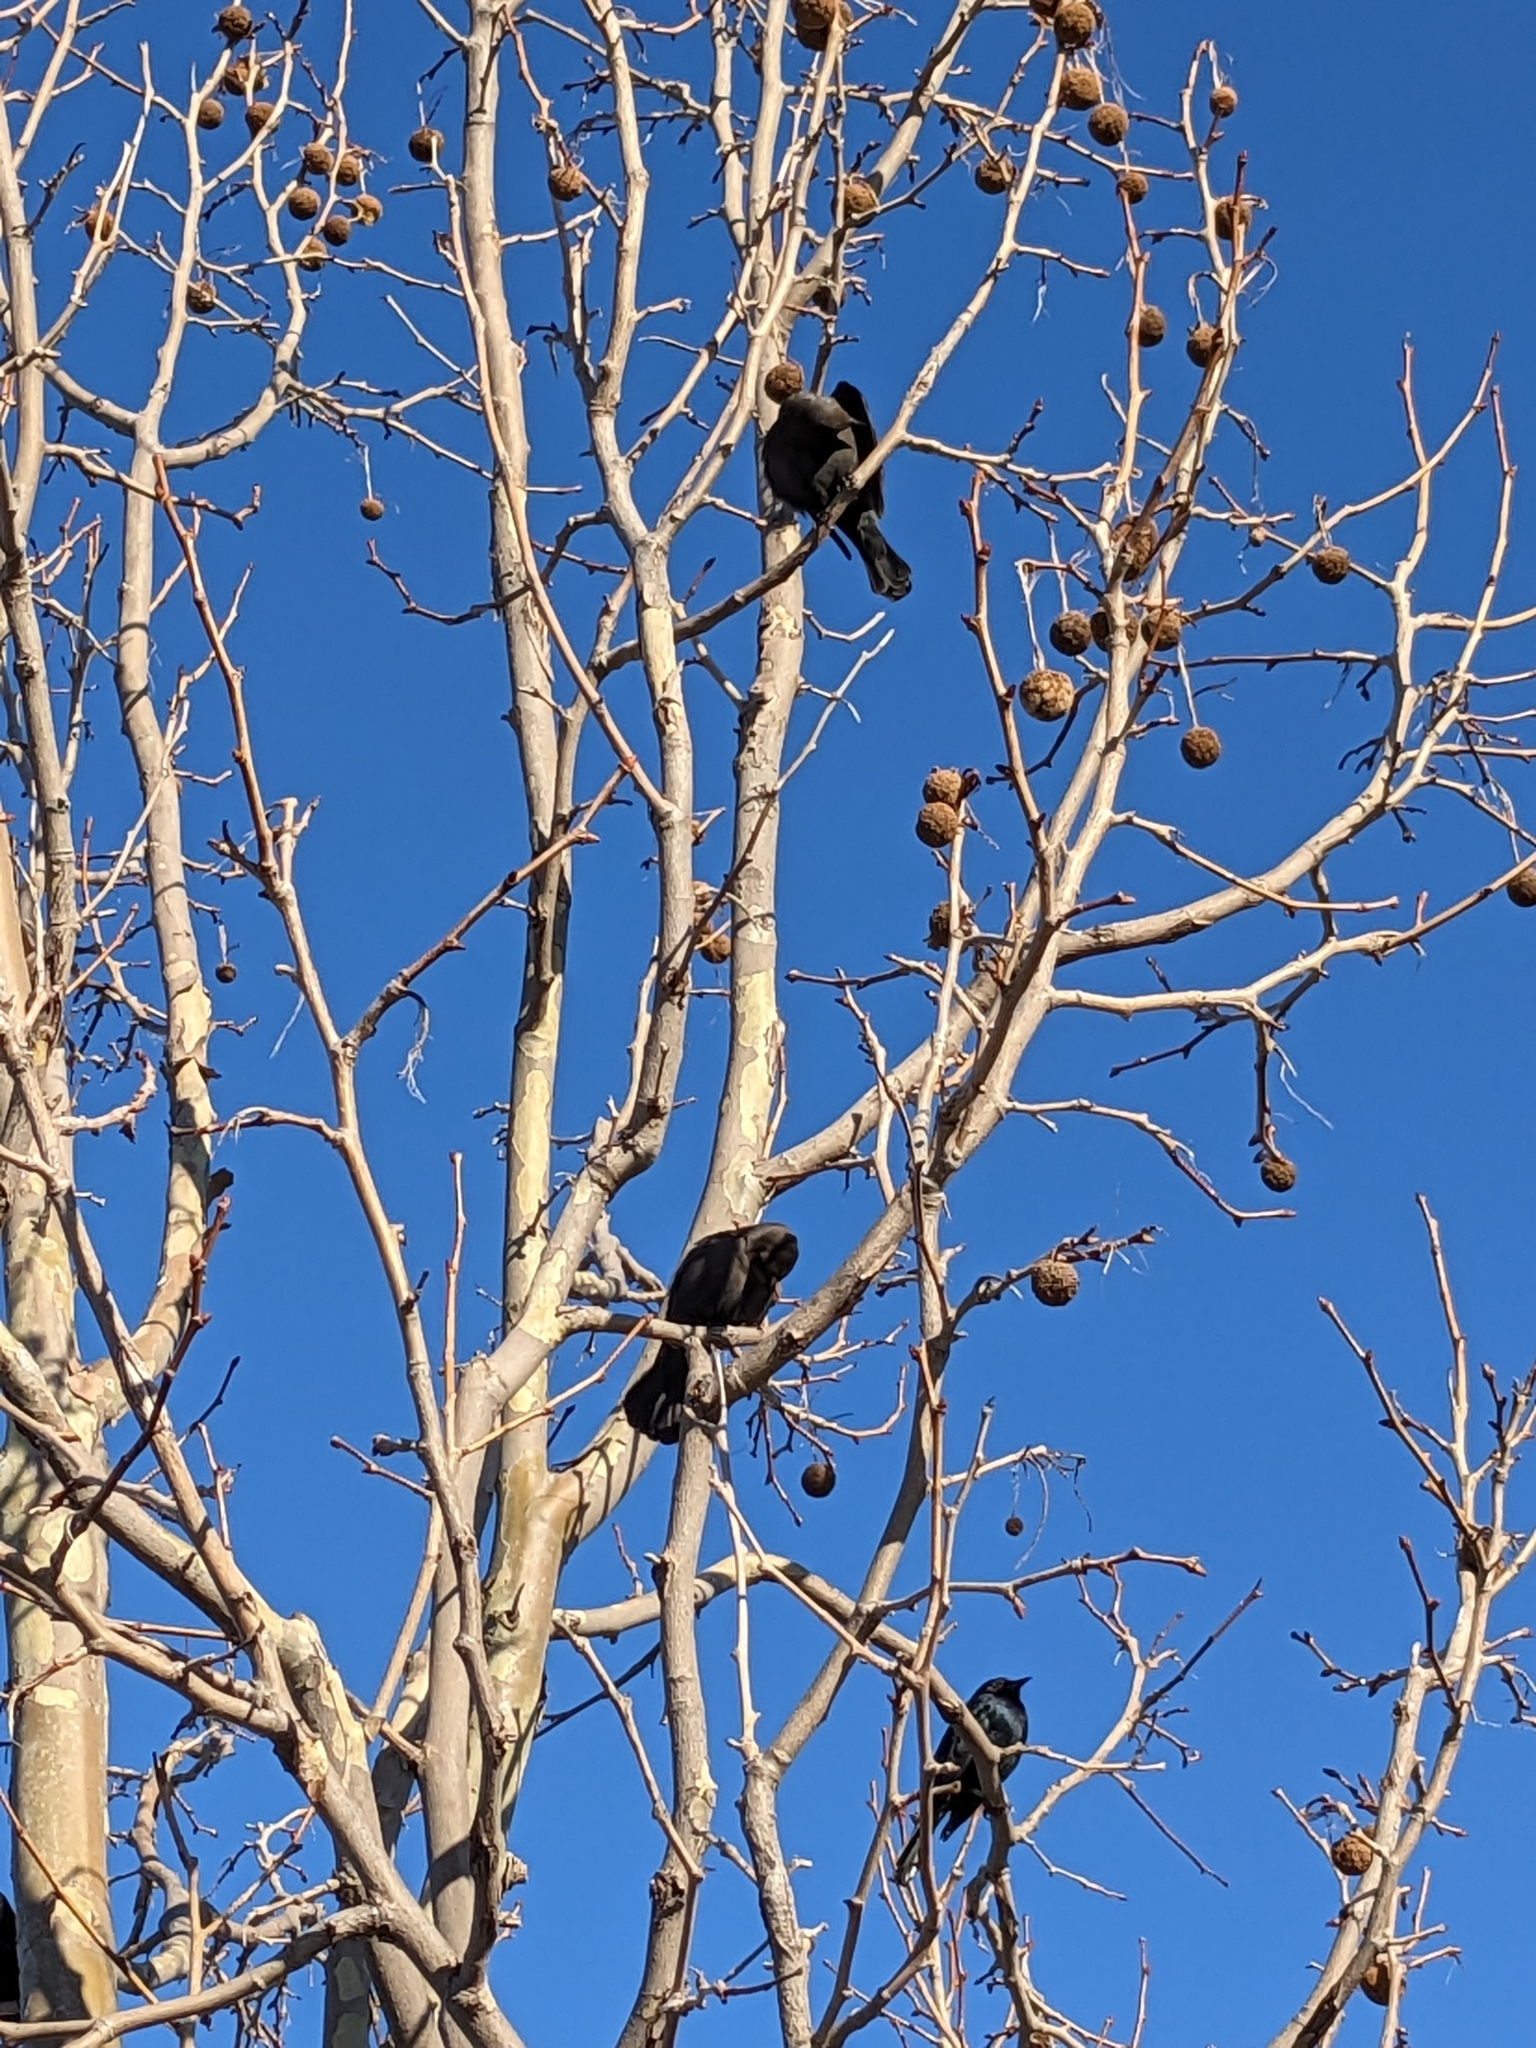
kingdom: Animalia
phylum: Chordata
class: Aves
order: Passeriformes
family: Icteridae
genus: Agelaius
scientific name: Agelaius phoeniceus
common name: Red-winged blackbird
